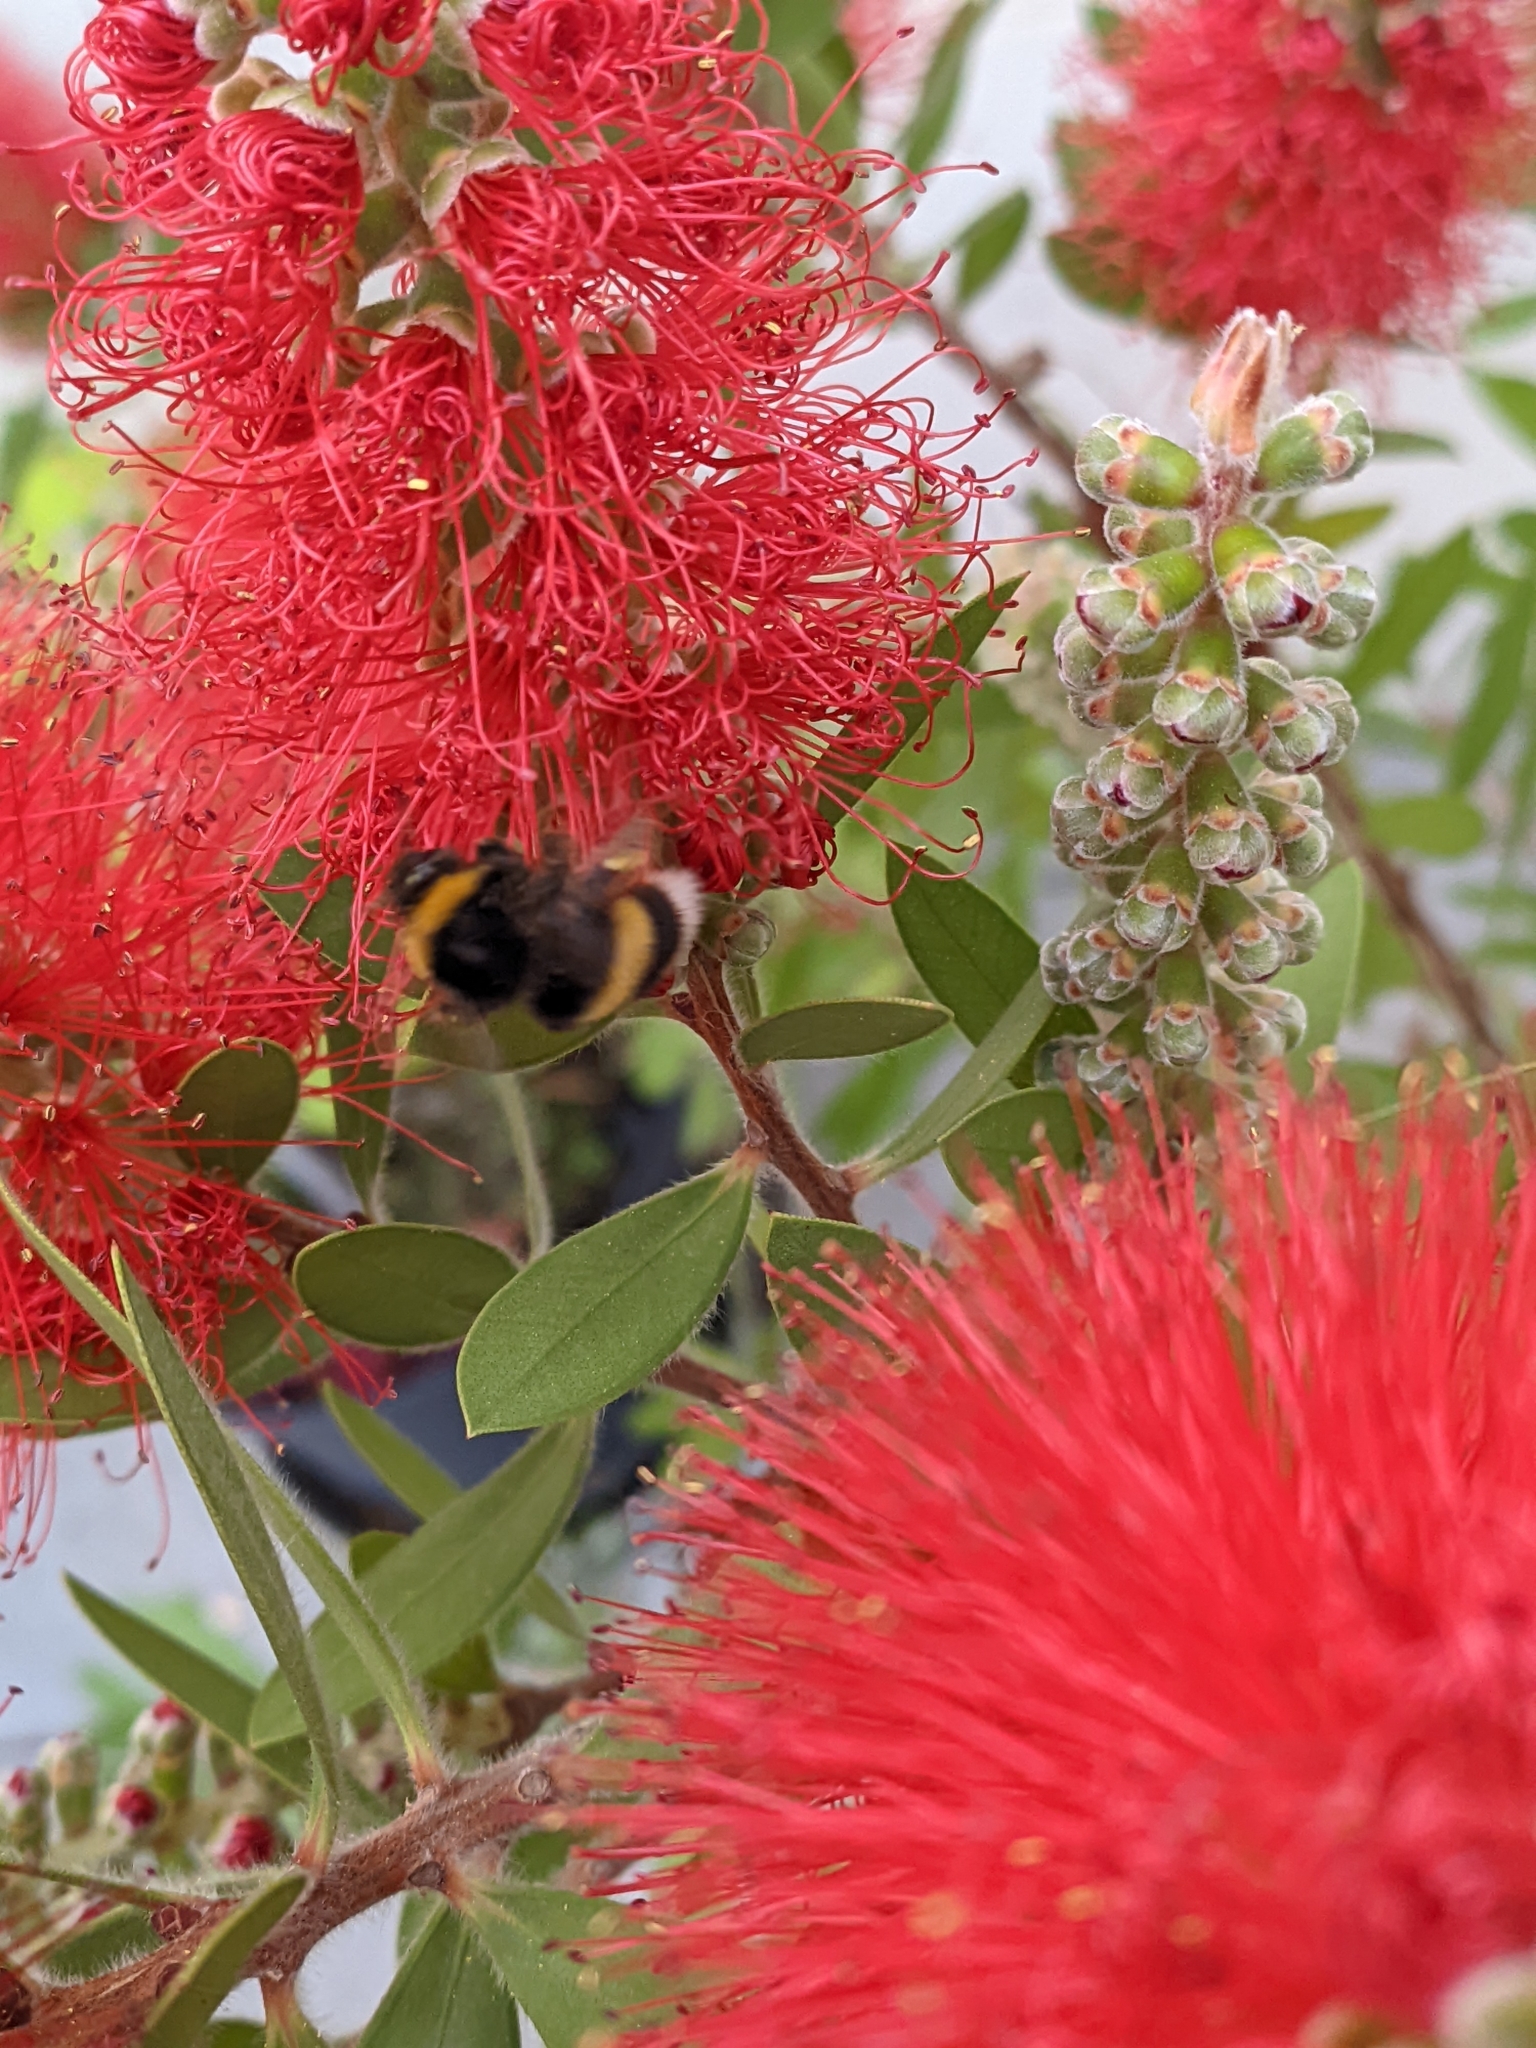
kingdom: Animalia
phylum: Arthropoda
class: Insecta
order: Hymenoptera
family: Apidae
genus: Bombus
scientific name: Bombus terrestris
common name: Buff-tailed bumblebee
